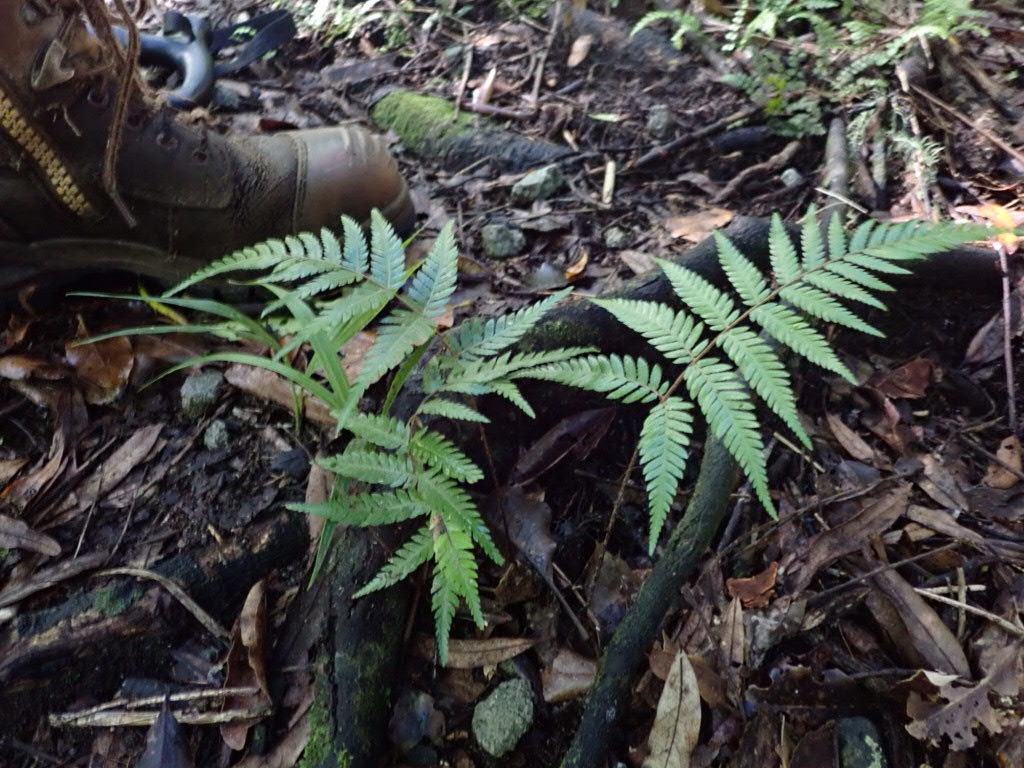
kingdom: Plantae
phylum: Tracheophyta
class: Polypodiopsida
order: Cyatheales
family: Cyatheaceae
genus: Alsophila
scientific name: Alsophila dealbata
